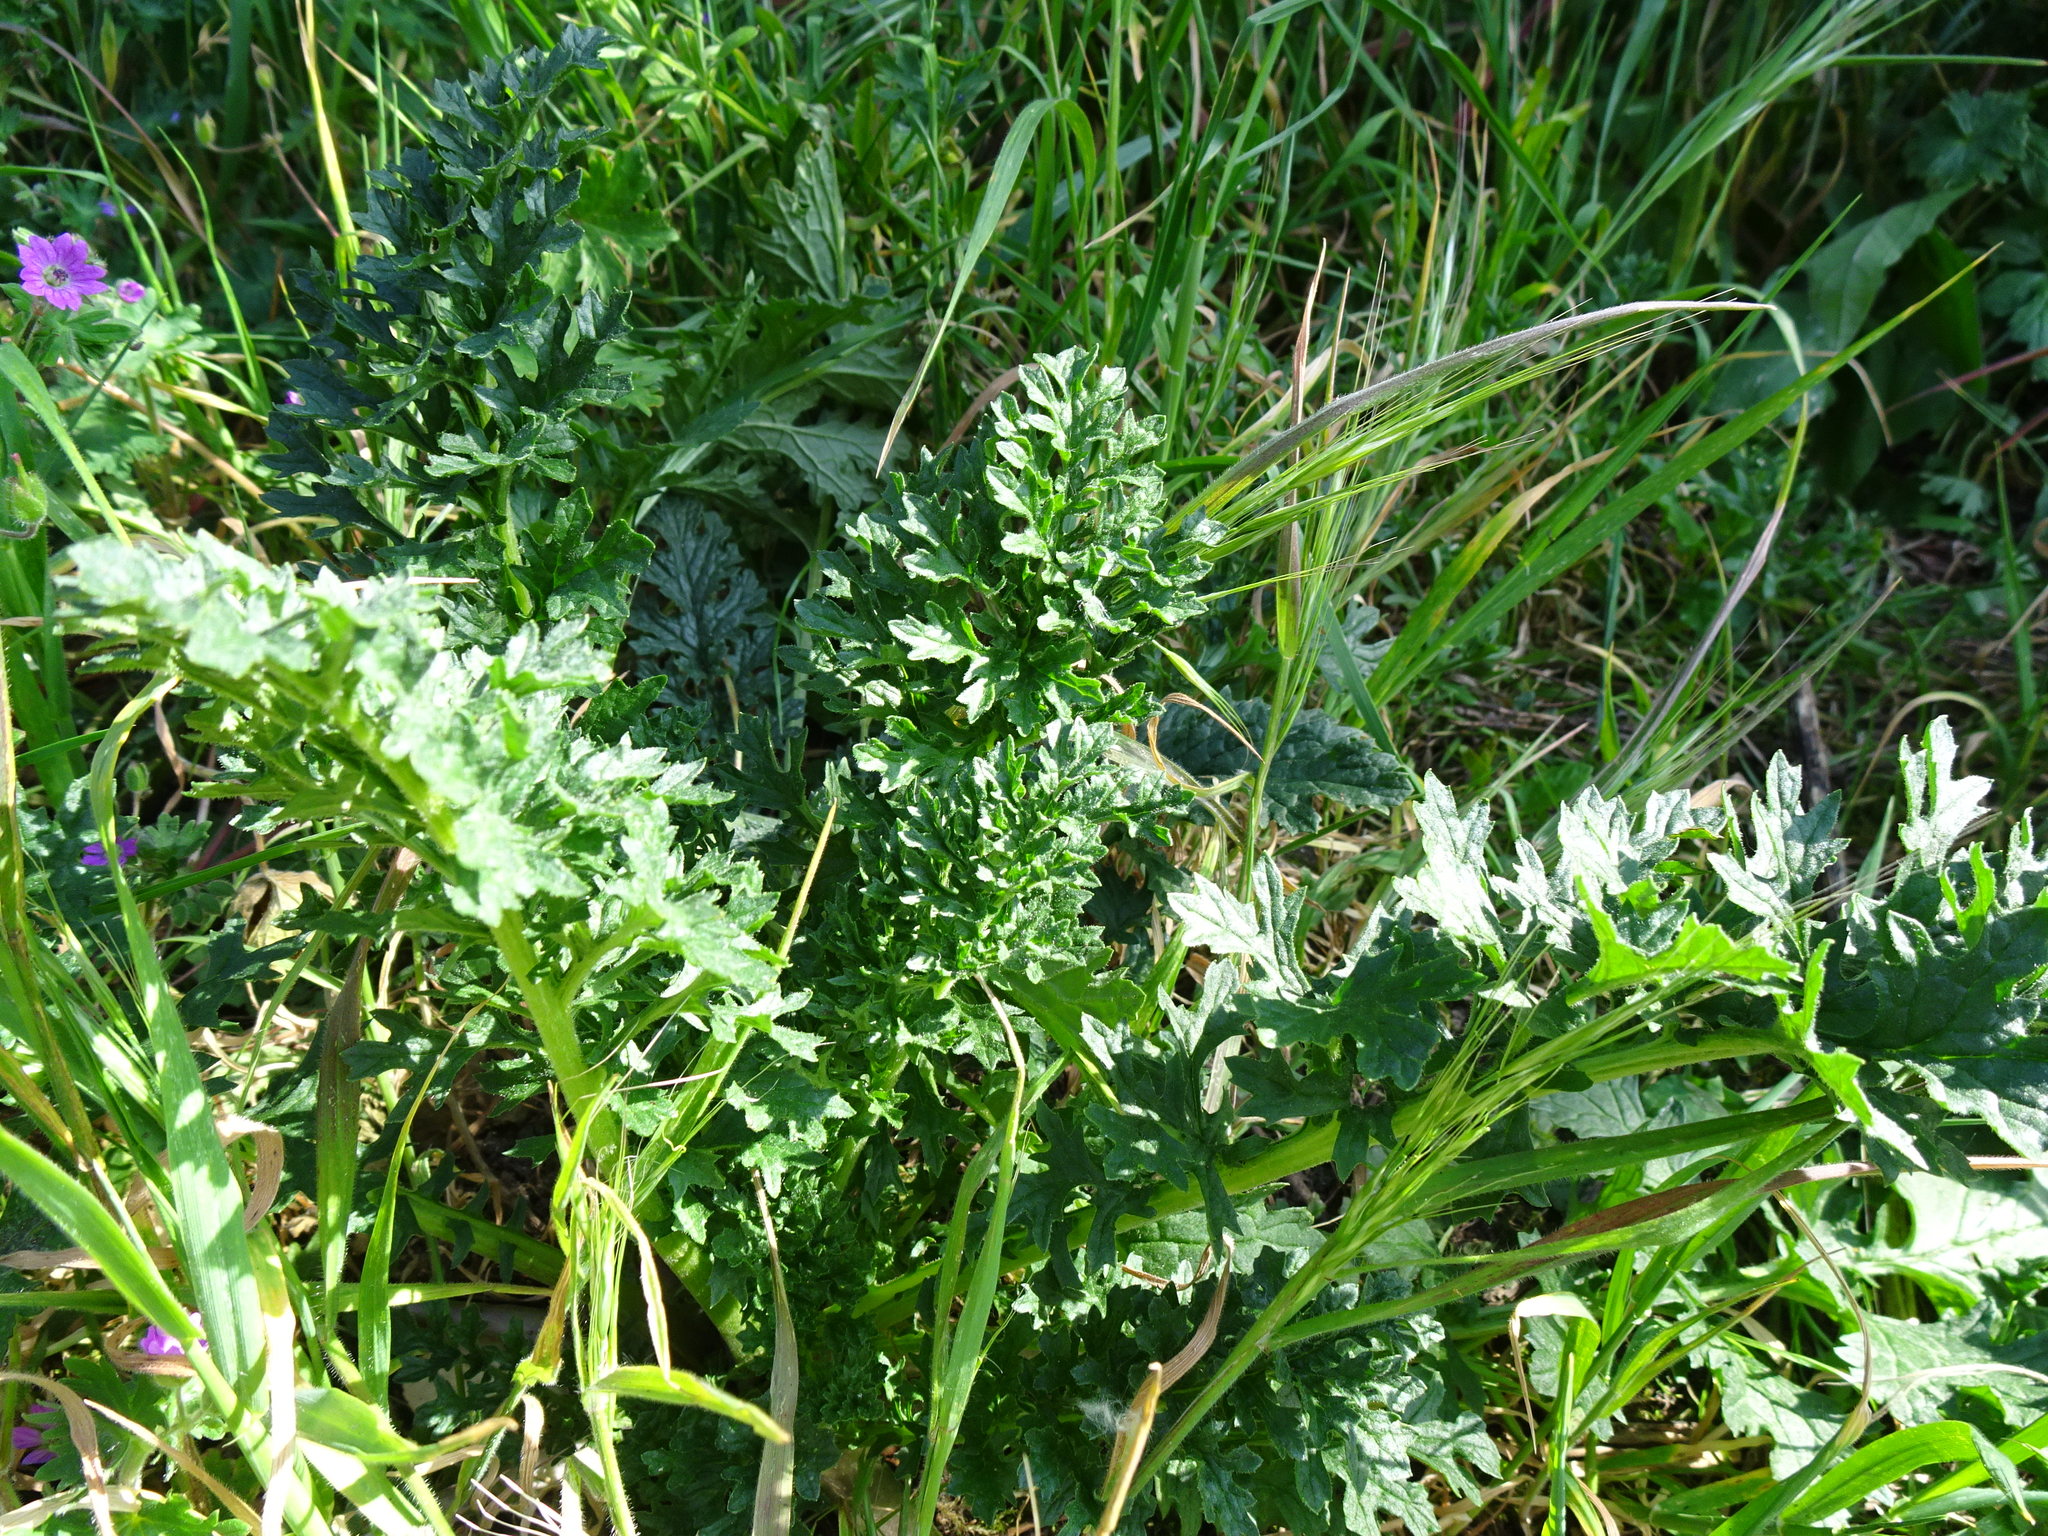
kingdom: Plantae
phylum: Tracheophyta
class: Magnoliopsida
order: Asterales
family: Asteraceae
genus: Jacobaea
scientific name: Jacobaea vulgaris
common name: Stinking willie
